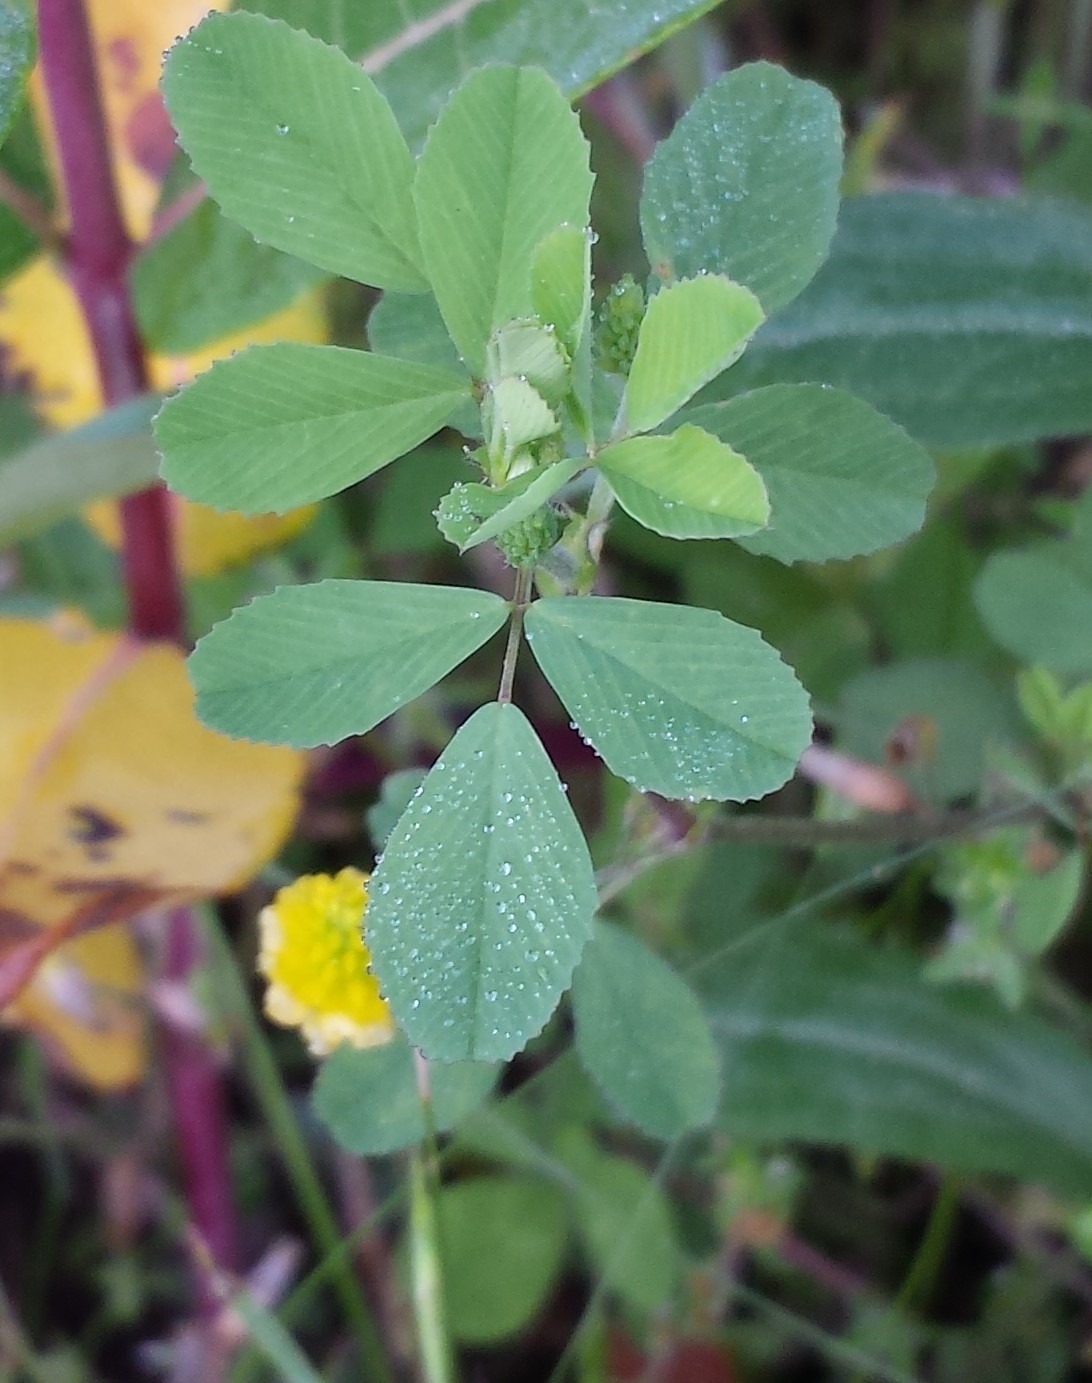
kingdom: Plantae
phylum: Tracheophyta
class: Magnoliopsida
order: Fabales
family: Fabaceae
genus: Trifolium
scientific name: Trifolium campestre
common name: Field clover
